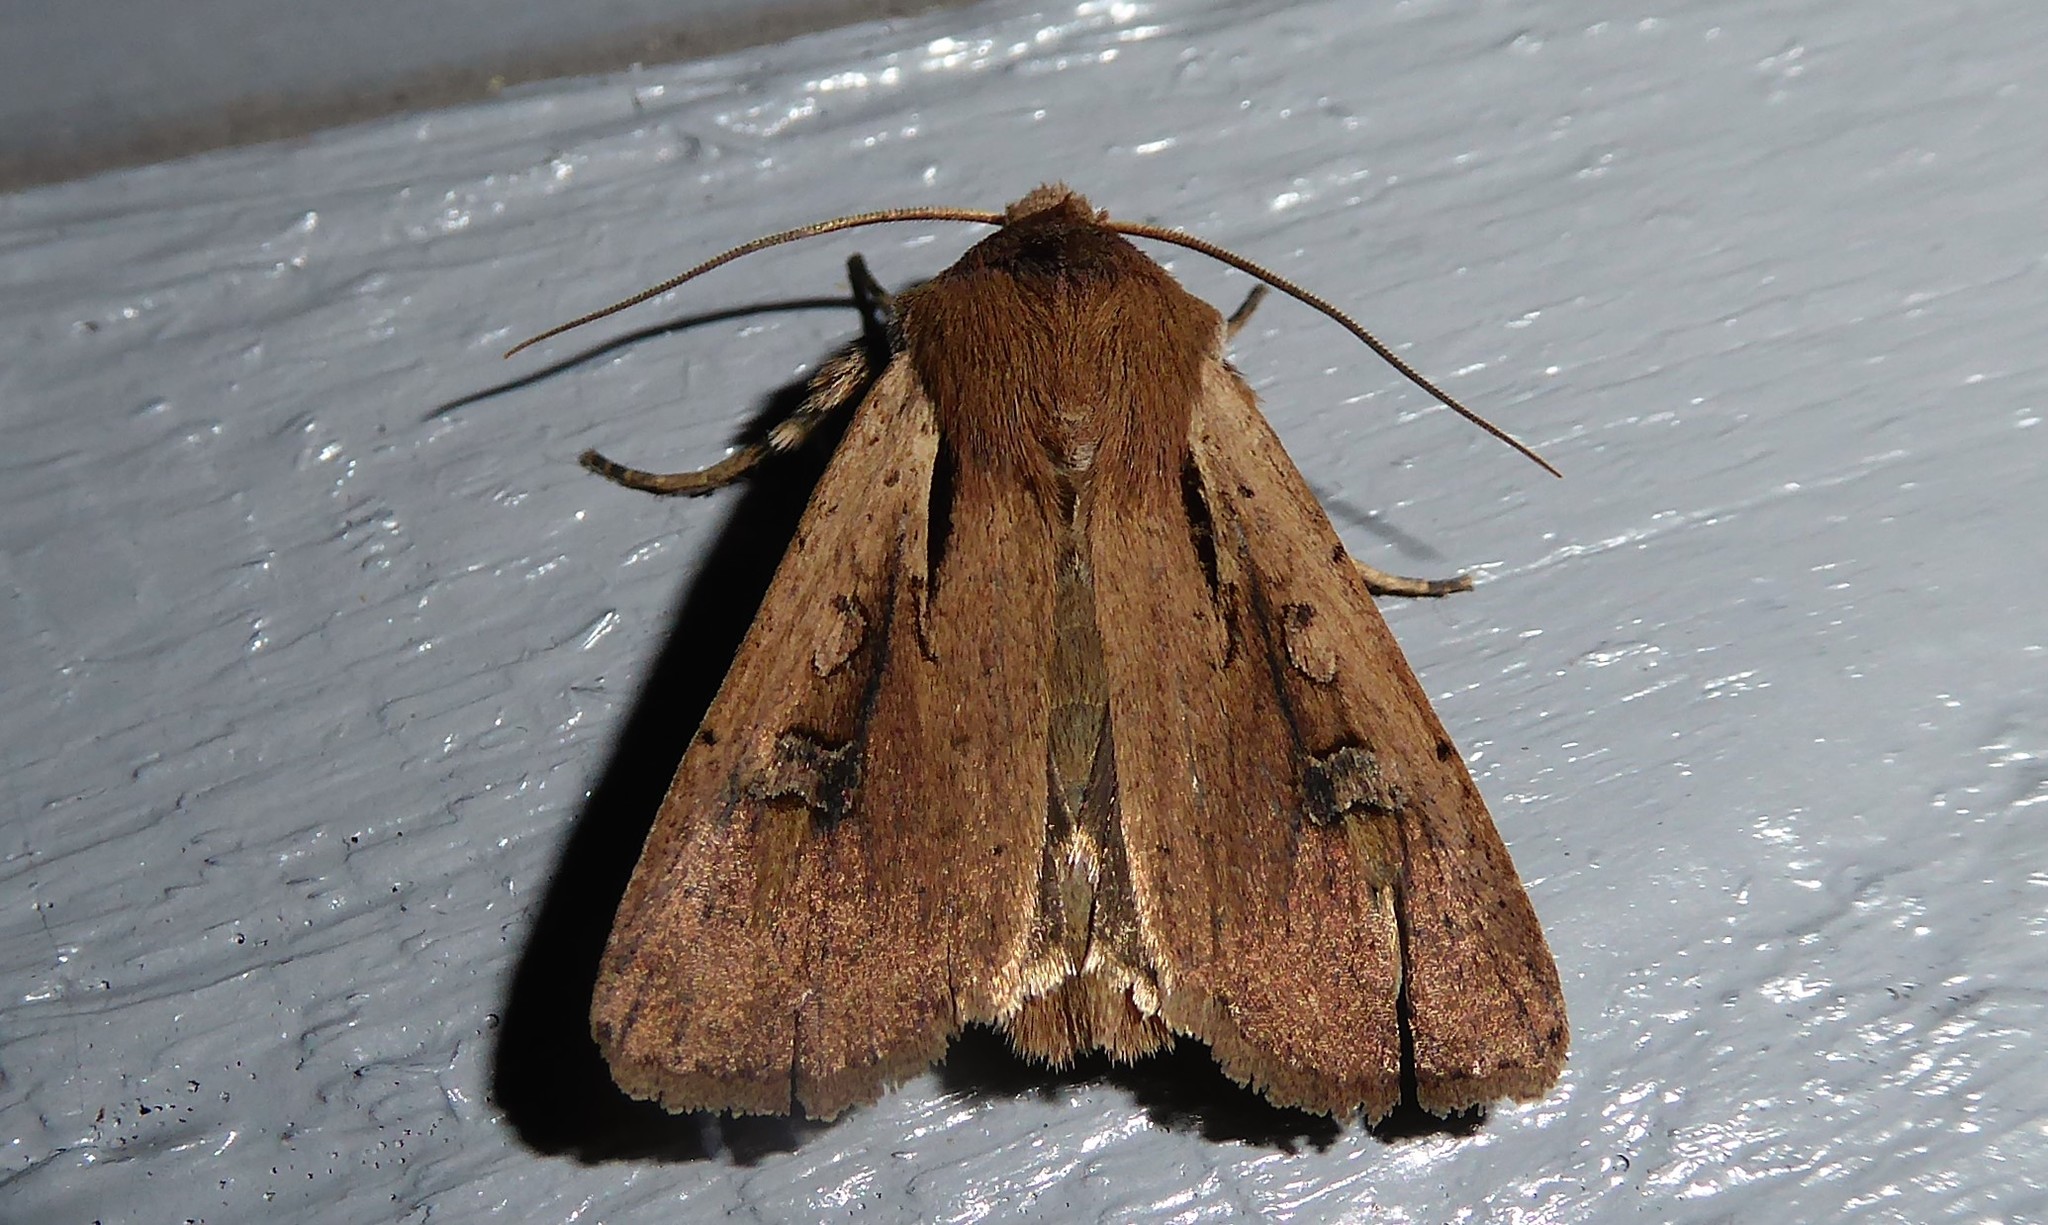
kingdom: Animalia
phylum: Arthropoda
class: Insecta
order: Lepidoptera
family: Noctuidae
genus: Ichneutica
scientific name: Ichneutica atristriga
